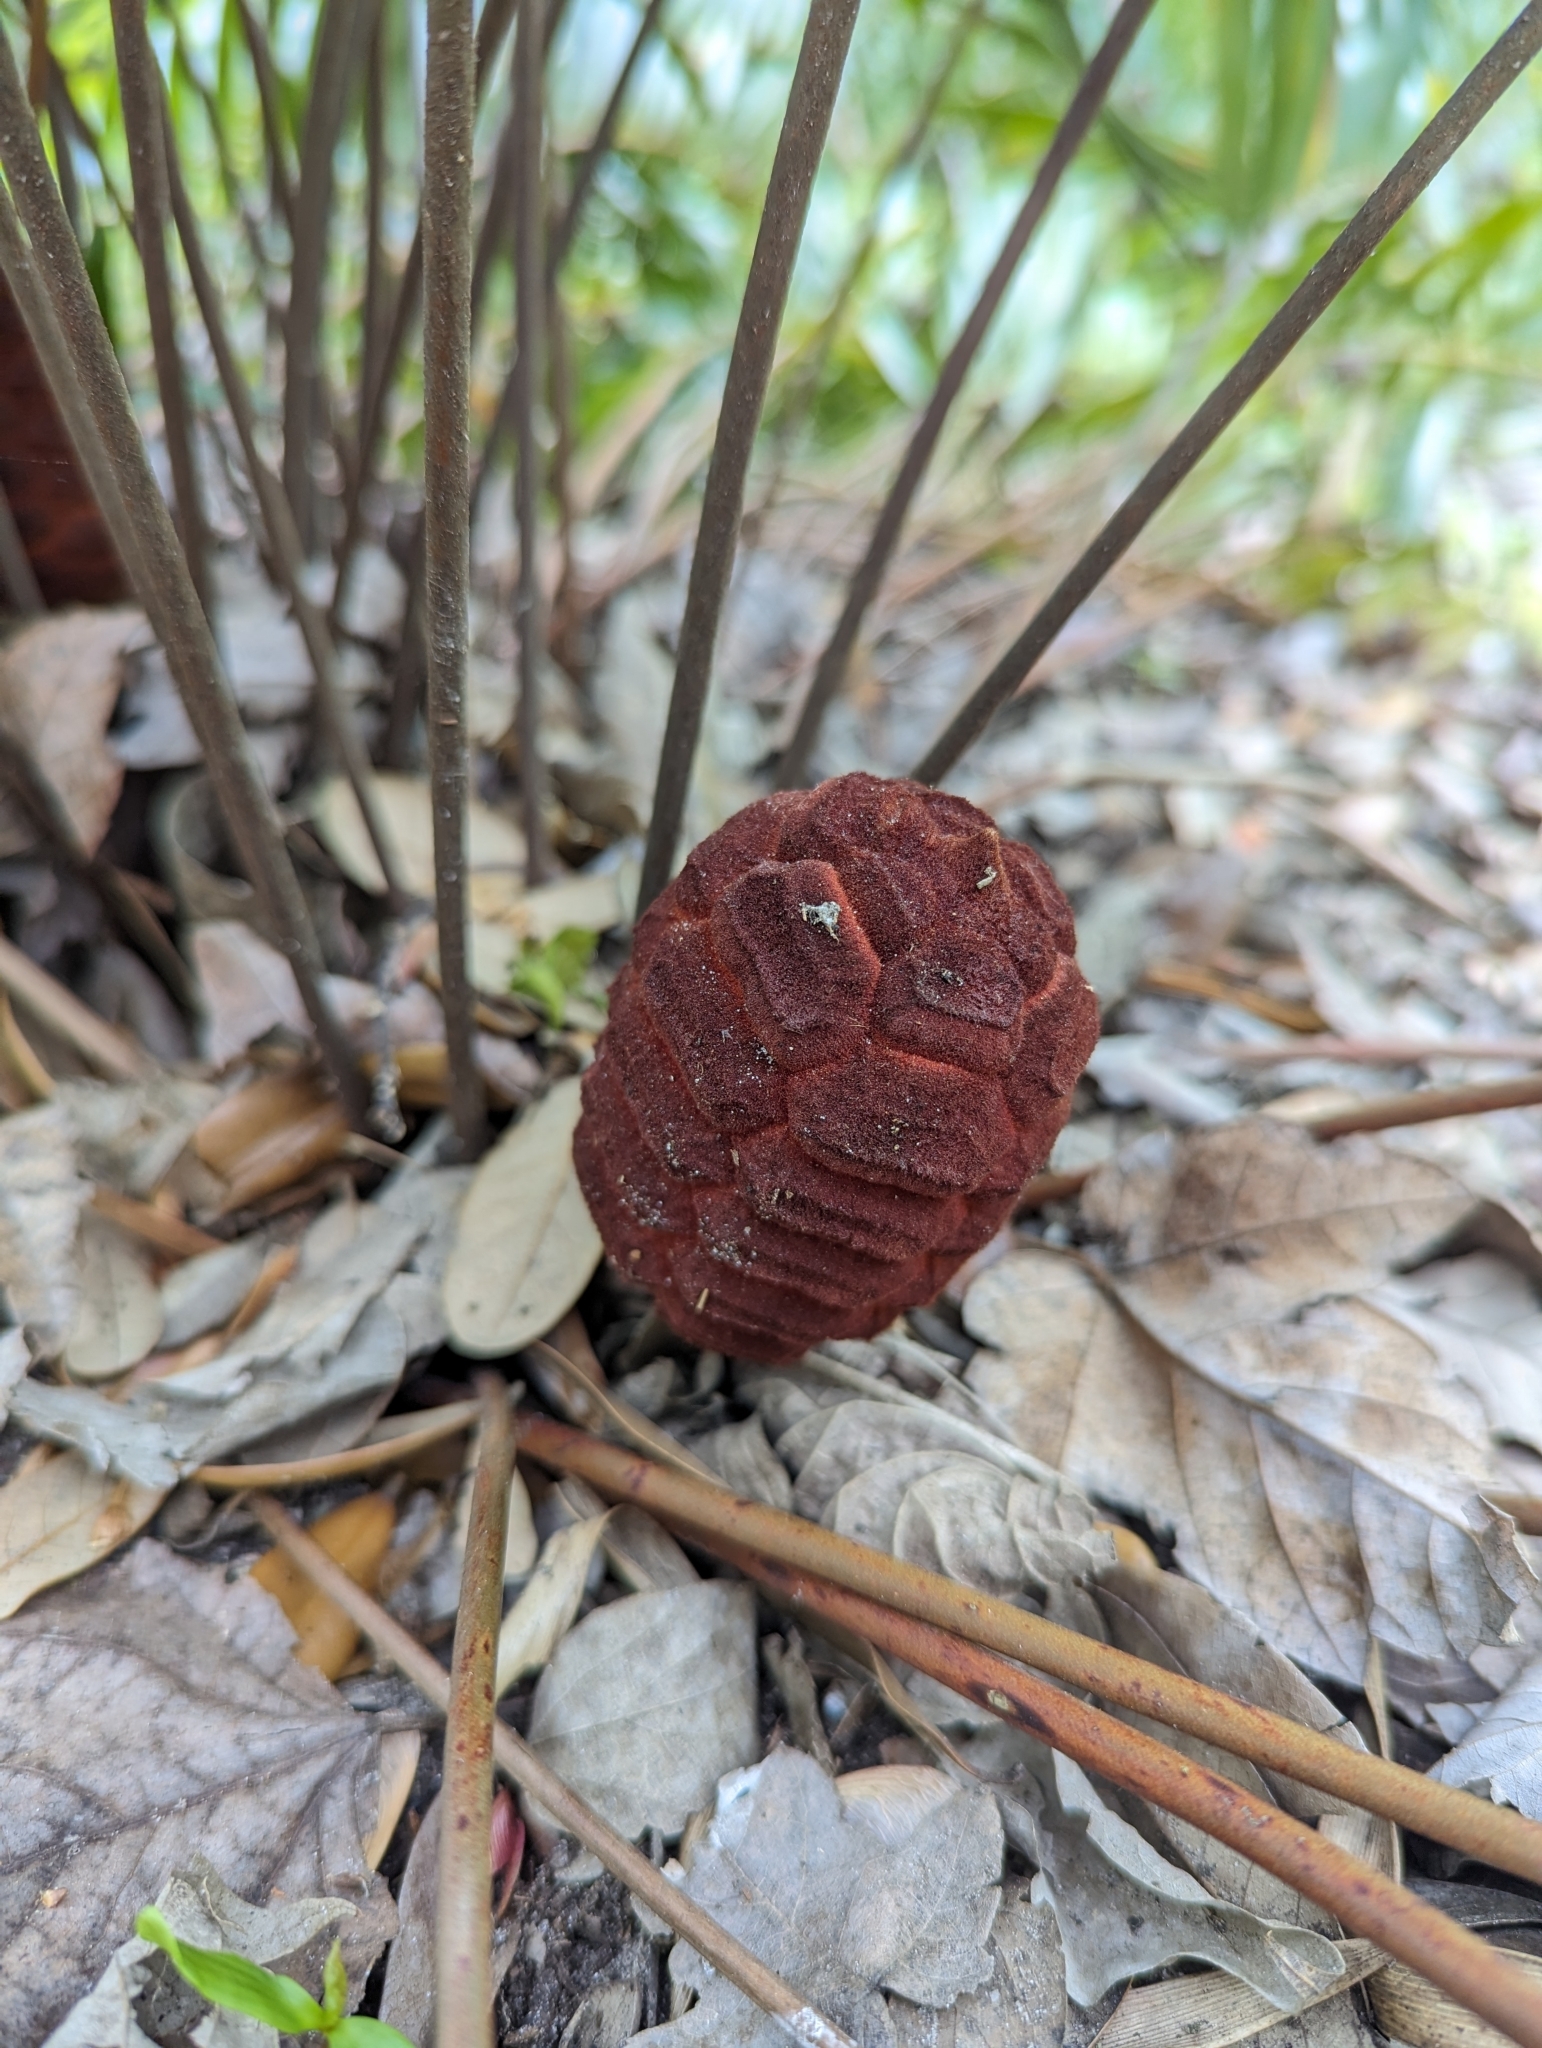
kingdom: Plantae
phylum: Tracheophyta
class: Cycadopsida
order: Cycadales
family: Zamiaceae
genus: Zamia
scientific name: Zamia integrifolia
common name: Florida arrowroot
